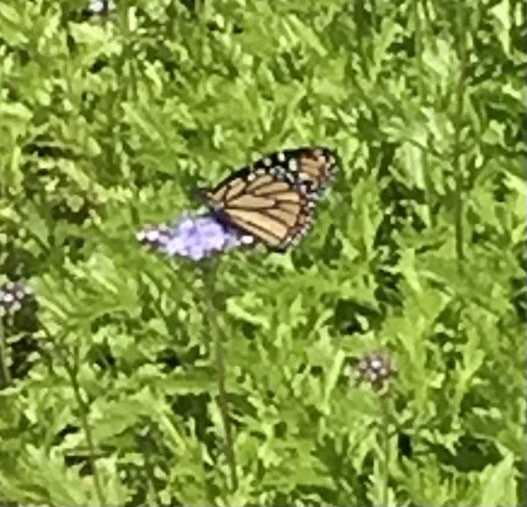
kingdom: Animalia
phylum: Arthropoda
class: Insecta
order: Lepidoptera
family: Nymphalidae
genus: Danaus
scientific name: Danaus plexippus
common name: Monarch
